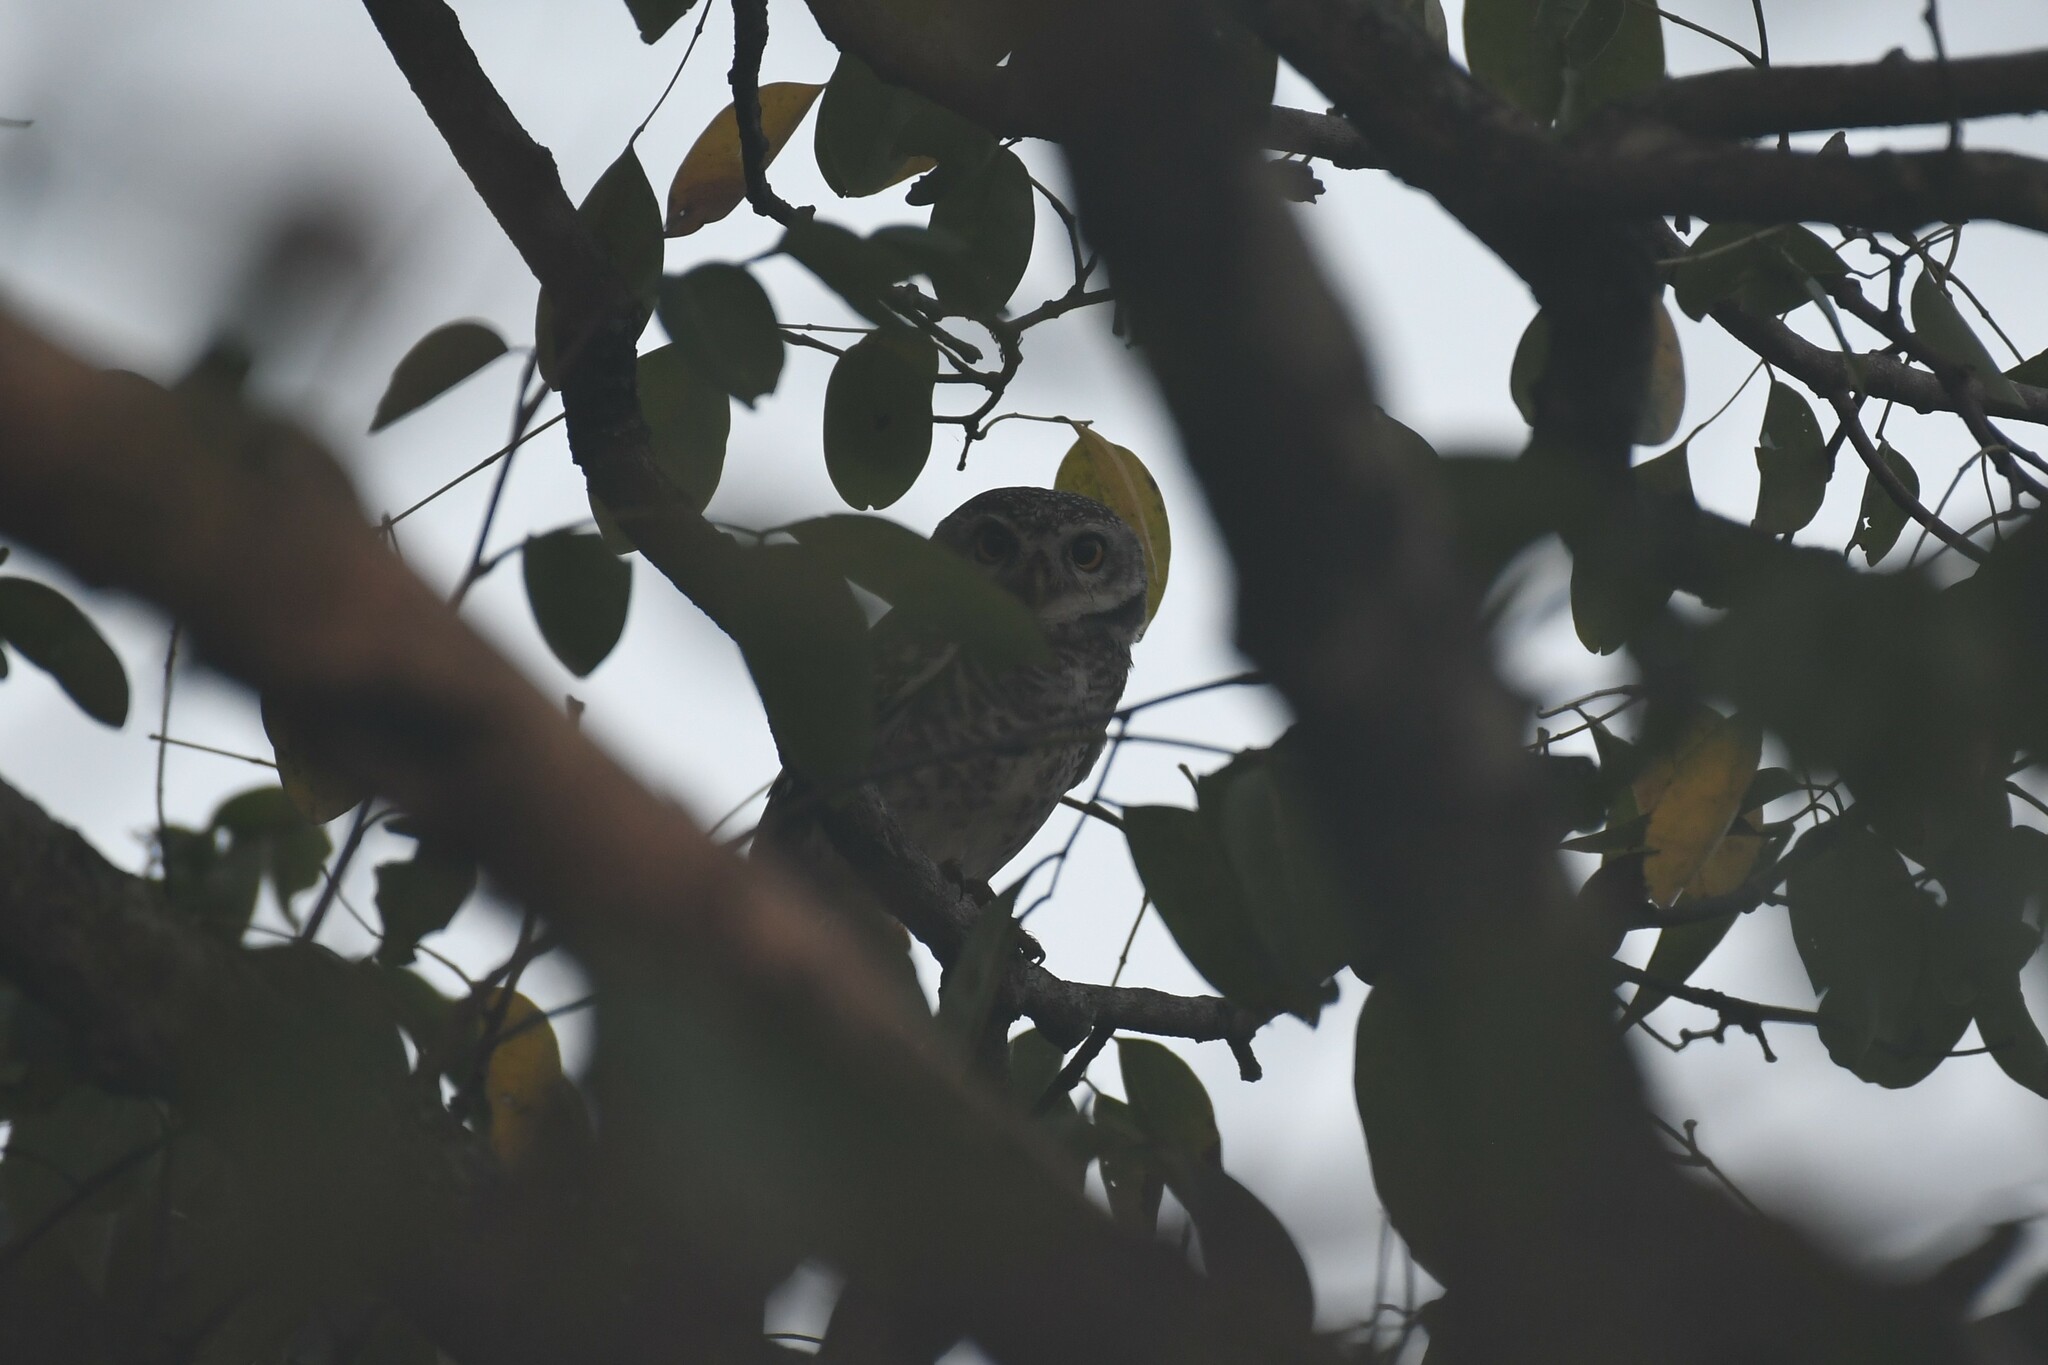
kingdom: Animalia
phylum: Chordata
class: Aves
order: Strigiformes
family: Strigidae
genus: Athene
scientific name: Athene brama
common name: Spotted owlet
